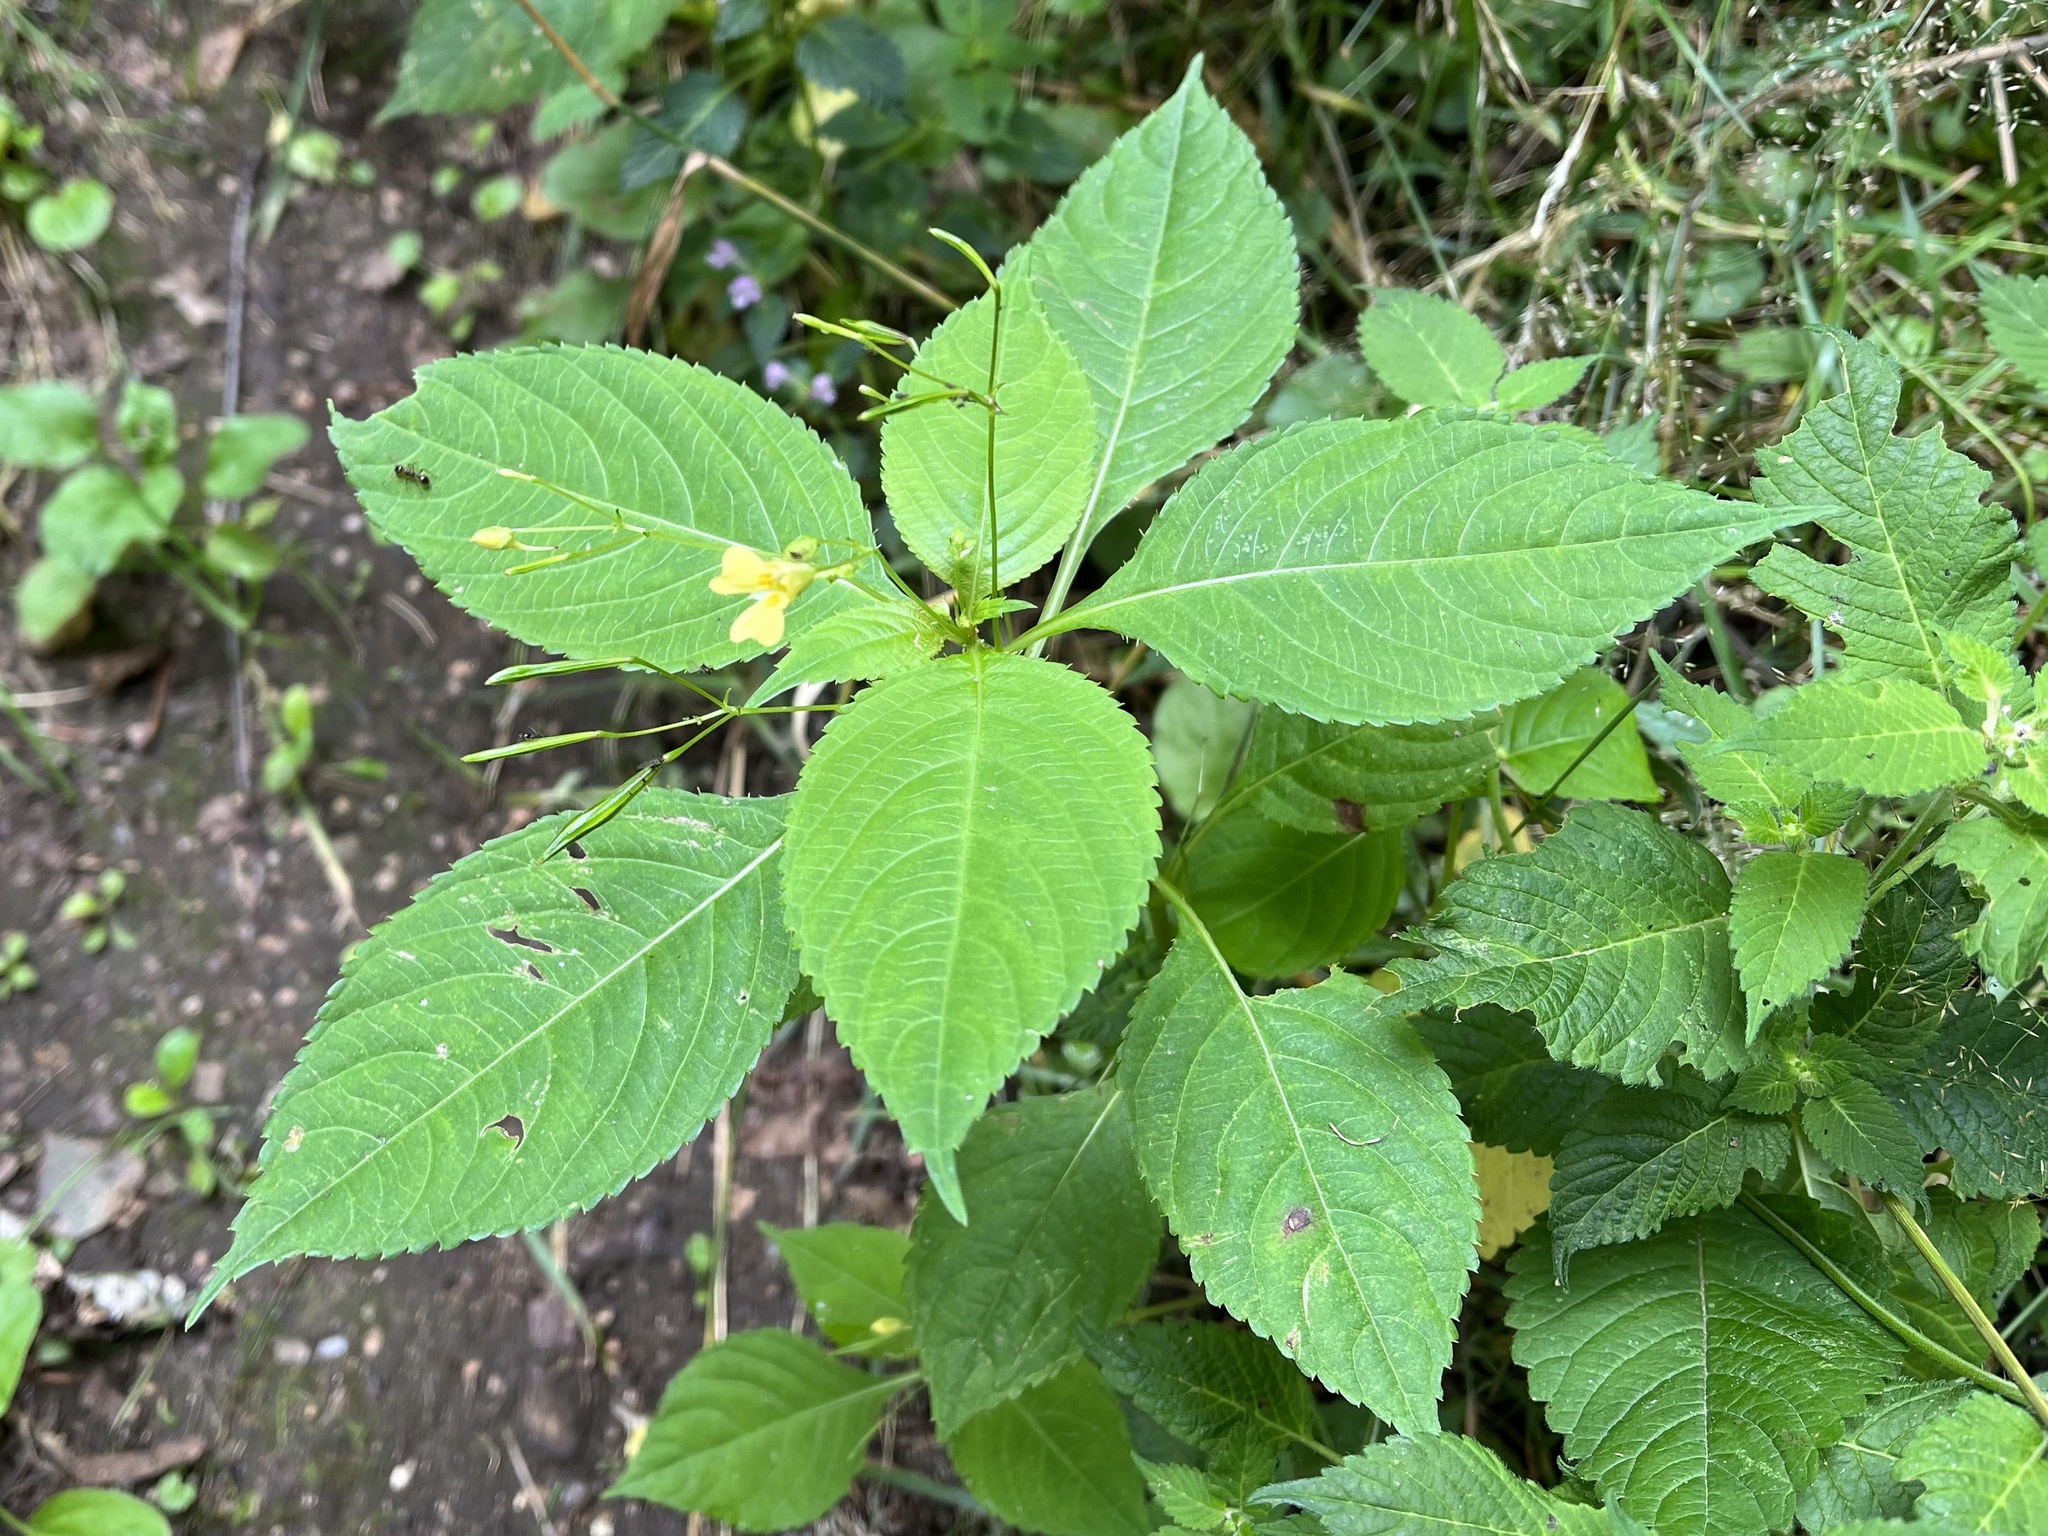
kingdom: Plantae
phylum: Tracheophyta
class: Magnoliopsida
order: Ericales
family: Balsaminaceae
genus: Impatiens
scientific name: Impatiens parviflora
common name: Small balsam
